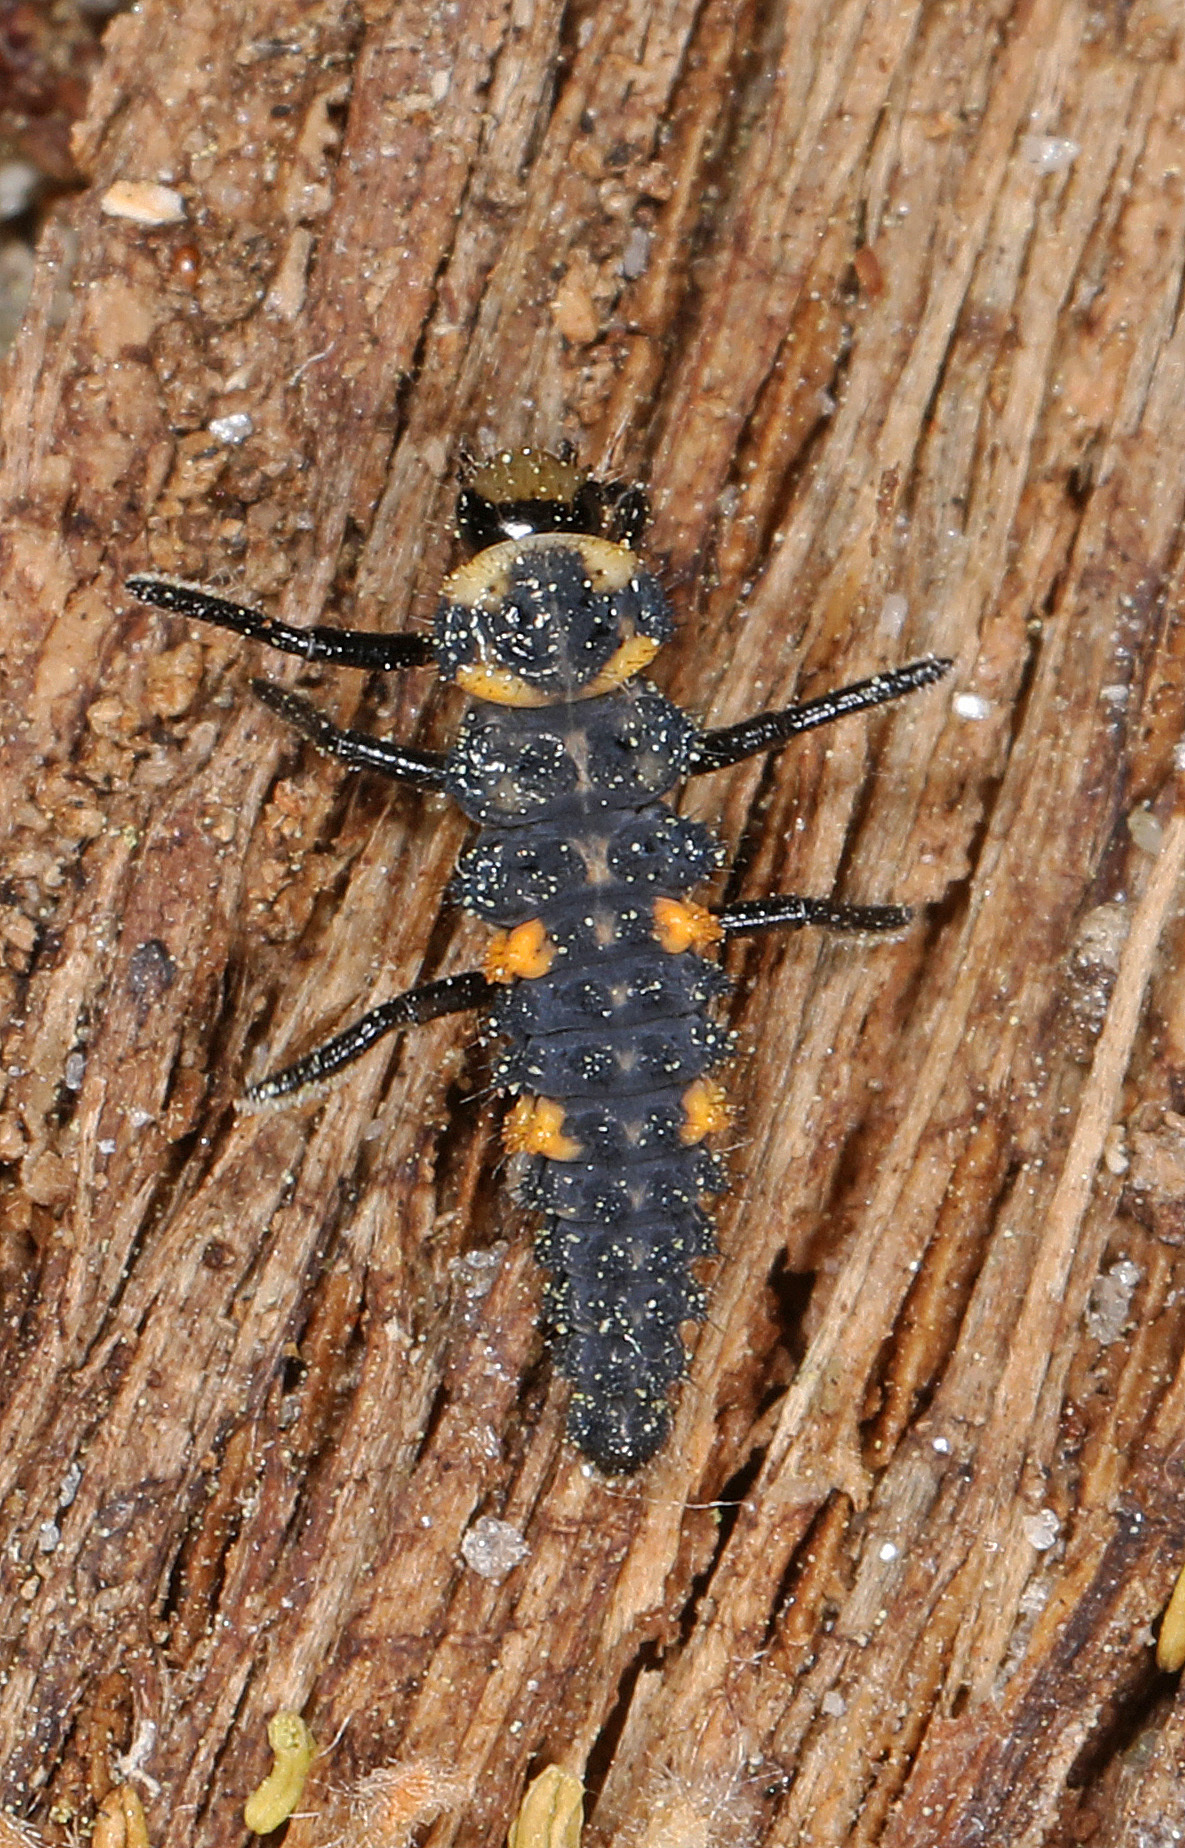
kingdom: Animalia
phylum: Arthropoda
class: Insecta
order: Coleoptera
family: Coccinellidae
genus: Coccinella
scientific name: Coccinella septempunctata
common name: Sevenspotted lady beetle
